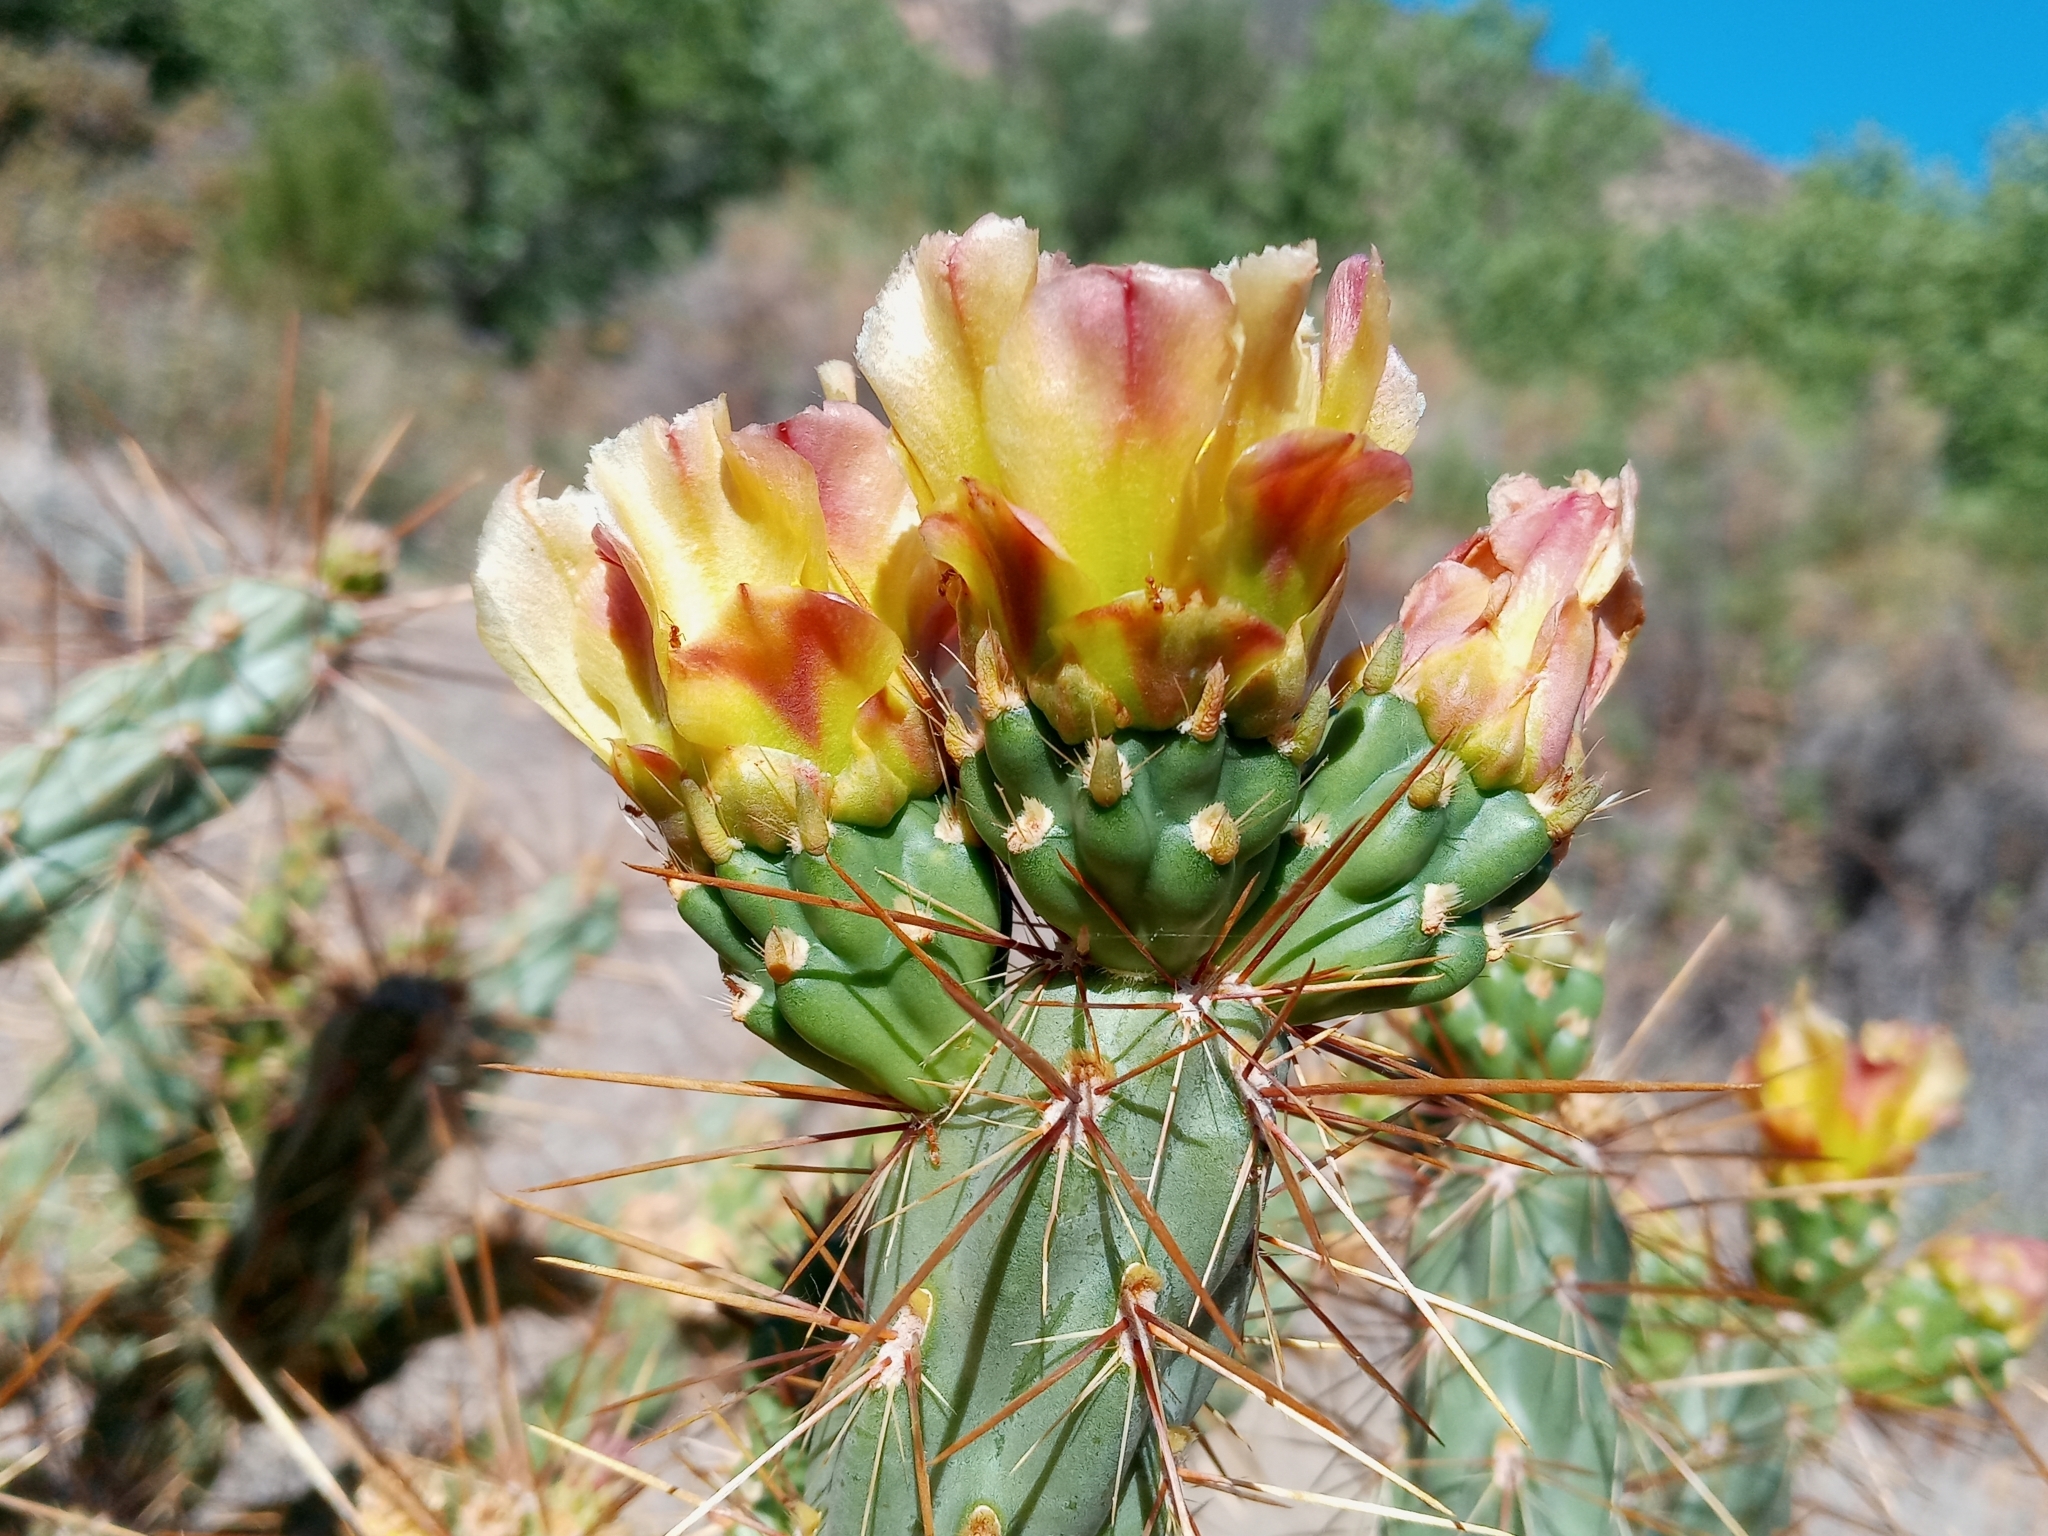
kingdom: Plantae
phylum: Tracheophyta
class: Magnoliopsida
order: Caryophyllales
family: Cactaceae
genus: Cylindropuntia
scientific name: Cylindropuntia bernardina
